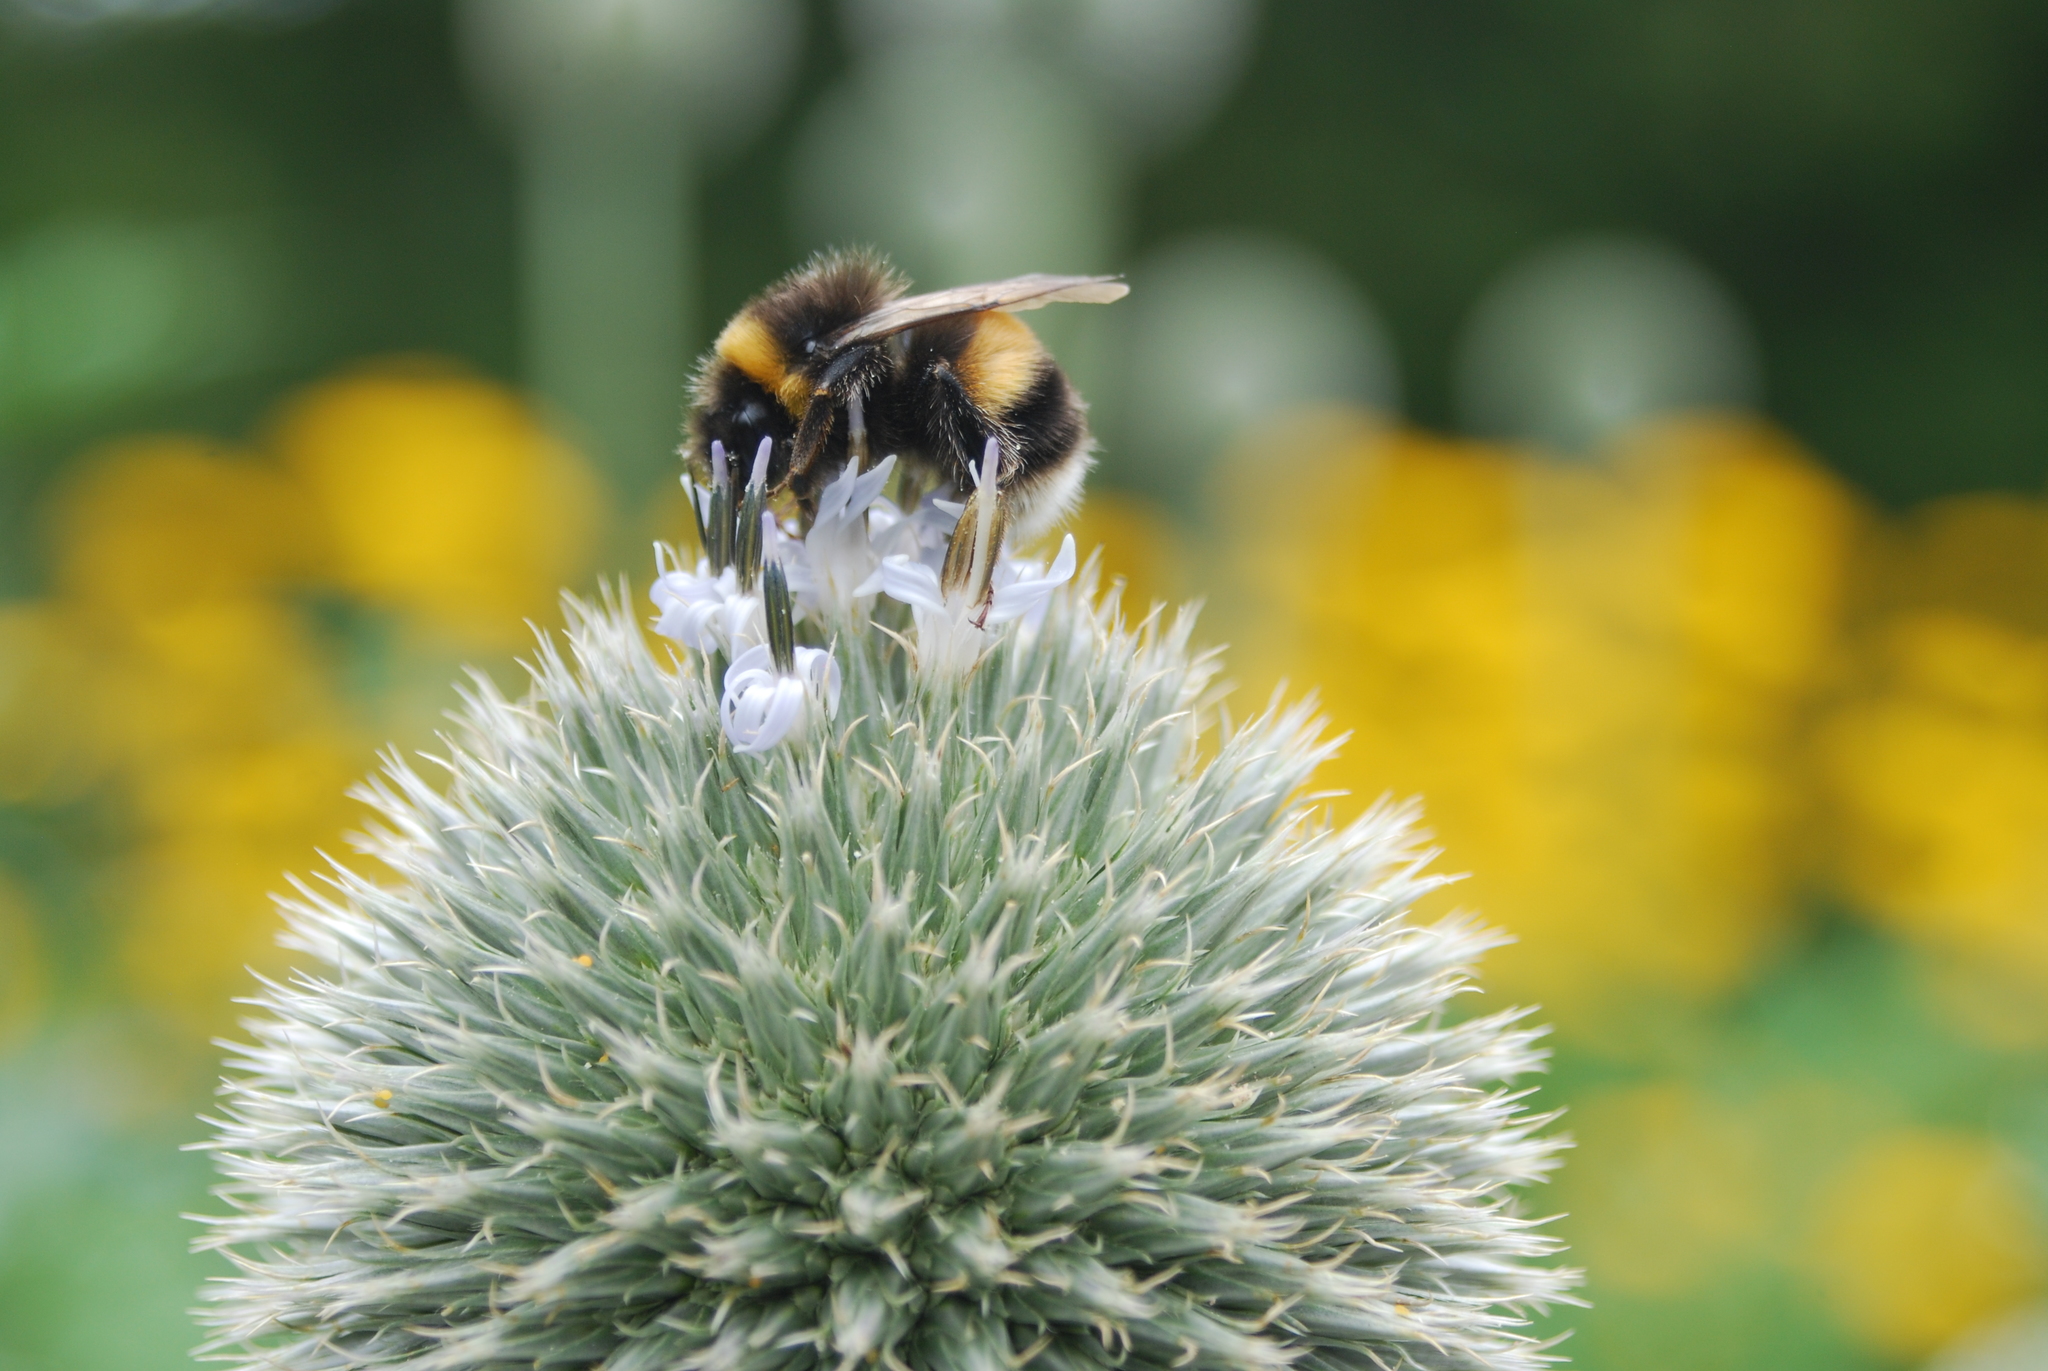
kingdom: Animalia
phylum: Arthropoda
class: Insecta
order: Hymenoptera
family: Apidae
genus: Bombus
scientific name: Bombus terrestris
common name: Buff-tailed bumblebee
